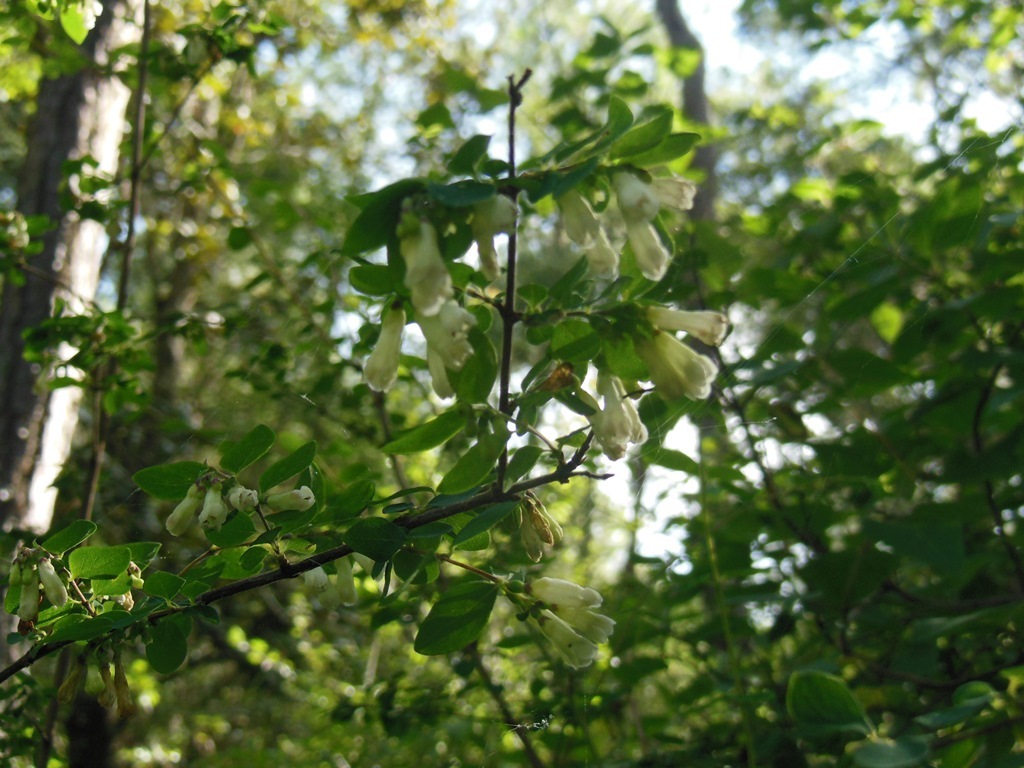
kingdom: Plantae
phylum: Tracheophyta
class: Magnoliopsida
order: Dipsacales
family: Caprifoliaceae
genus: Symphoricarpos
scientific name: Symphoricarpos microphyllus
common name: Small-leaved snowberry
